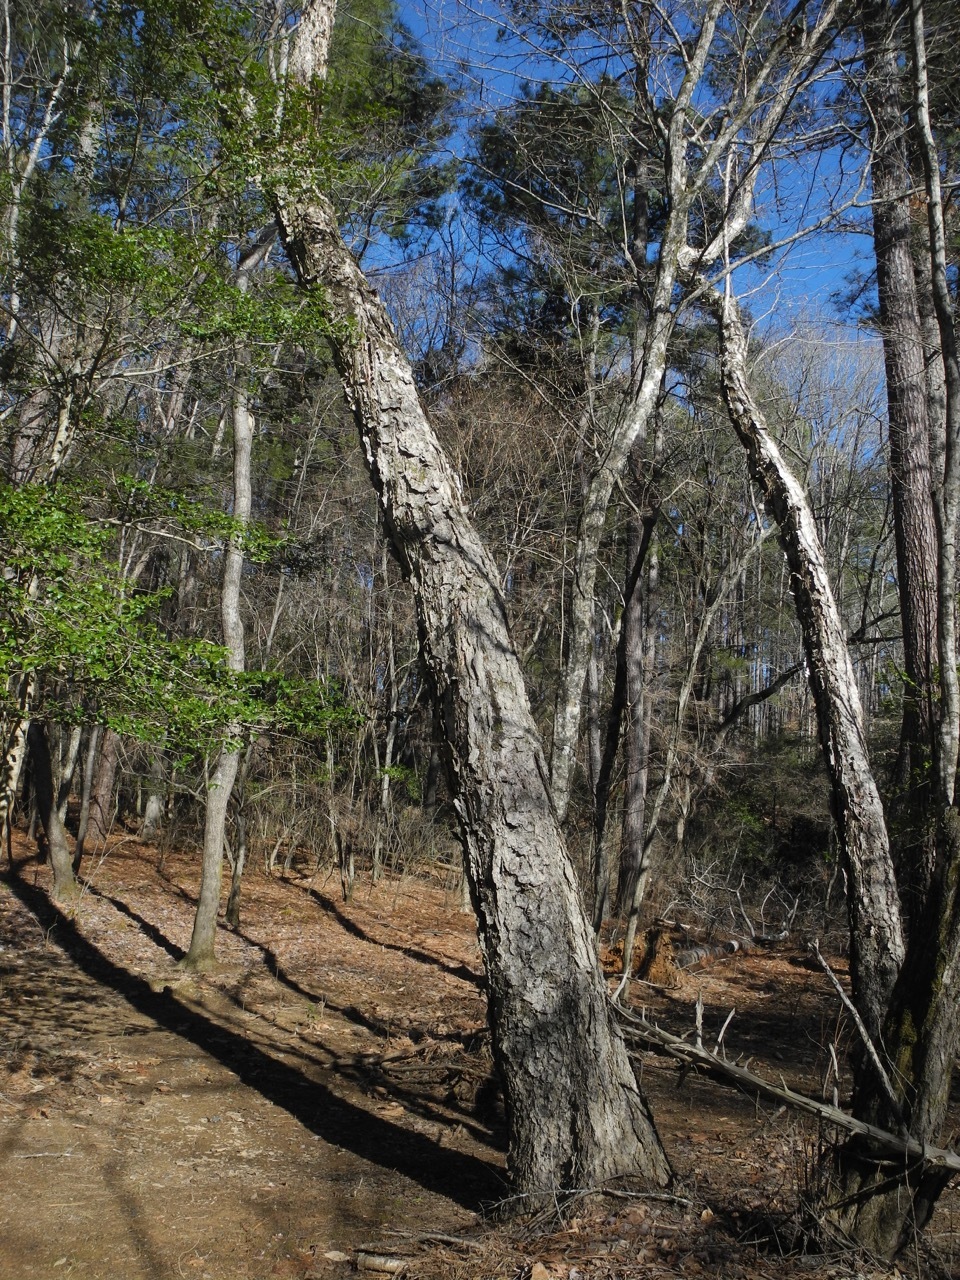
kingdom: Plantae
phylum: Tracheophyta
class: Magnoliopsida
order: Fagales
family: Betulaceae
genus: Betula
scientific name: Betula nigra
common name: Black birch
